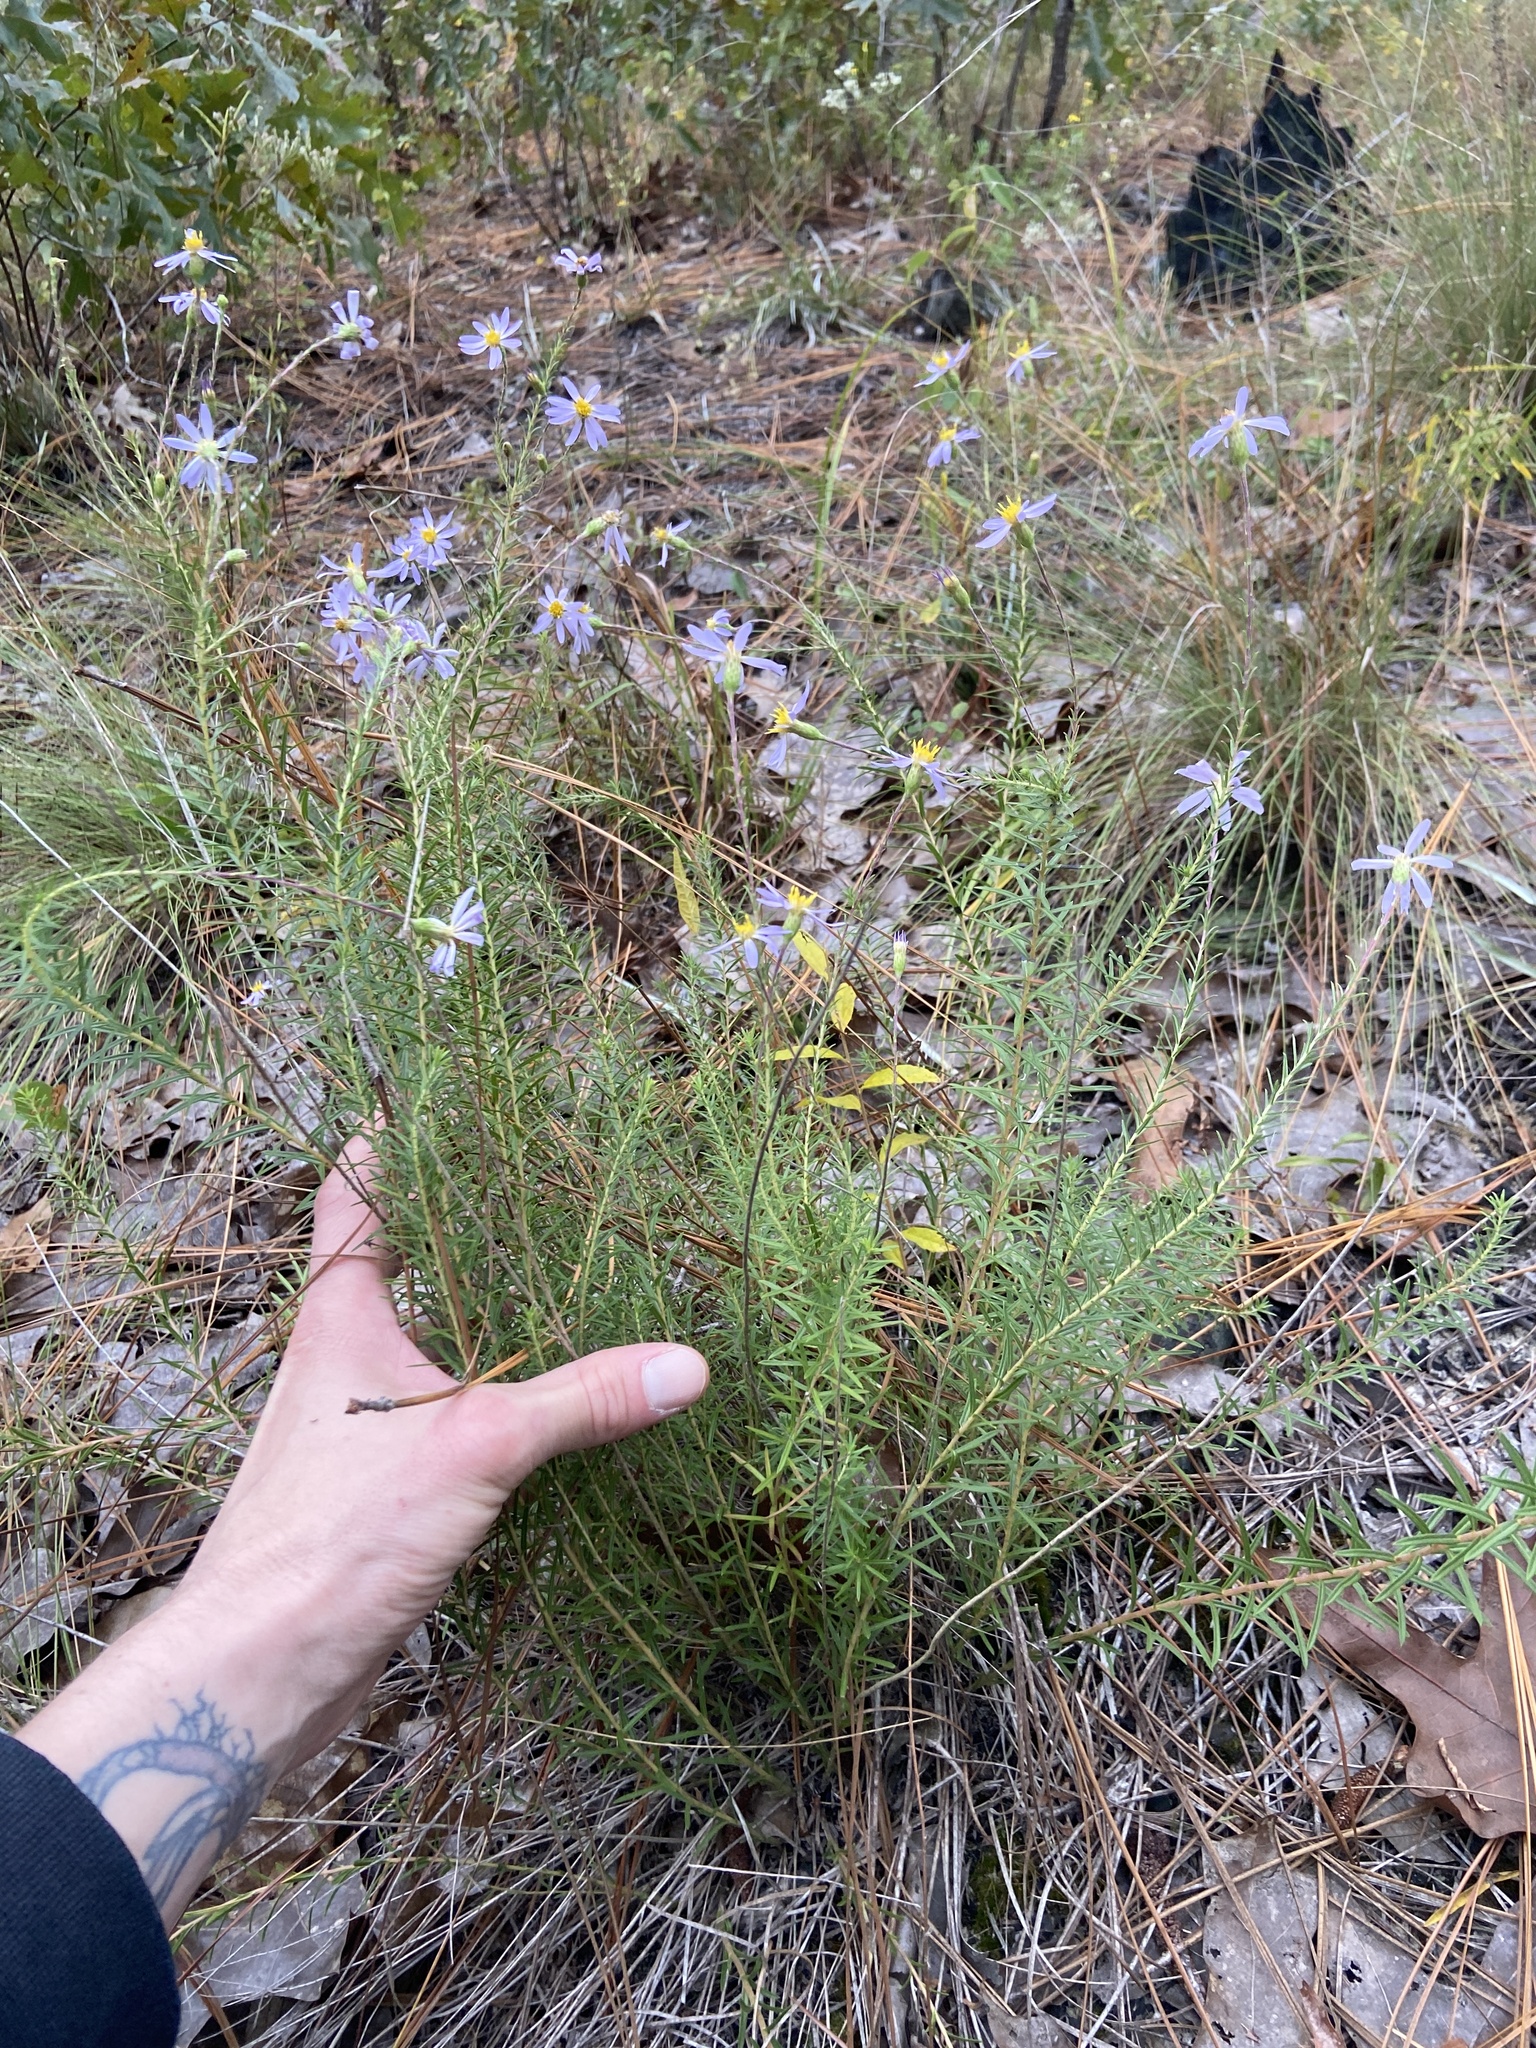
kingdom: Plantae
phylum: Tracheophyta
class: Magnoliopsida
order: Asterales
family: Asteraceae
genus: Ionactis
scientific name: Ionactis linariifolia
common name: Flax-leaf aster
